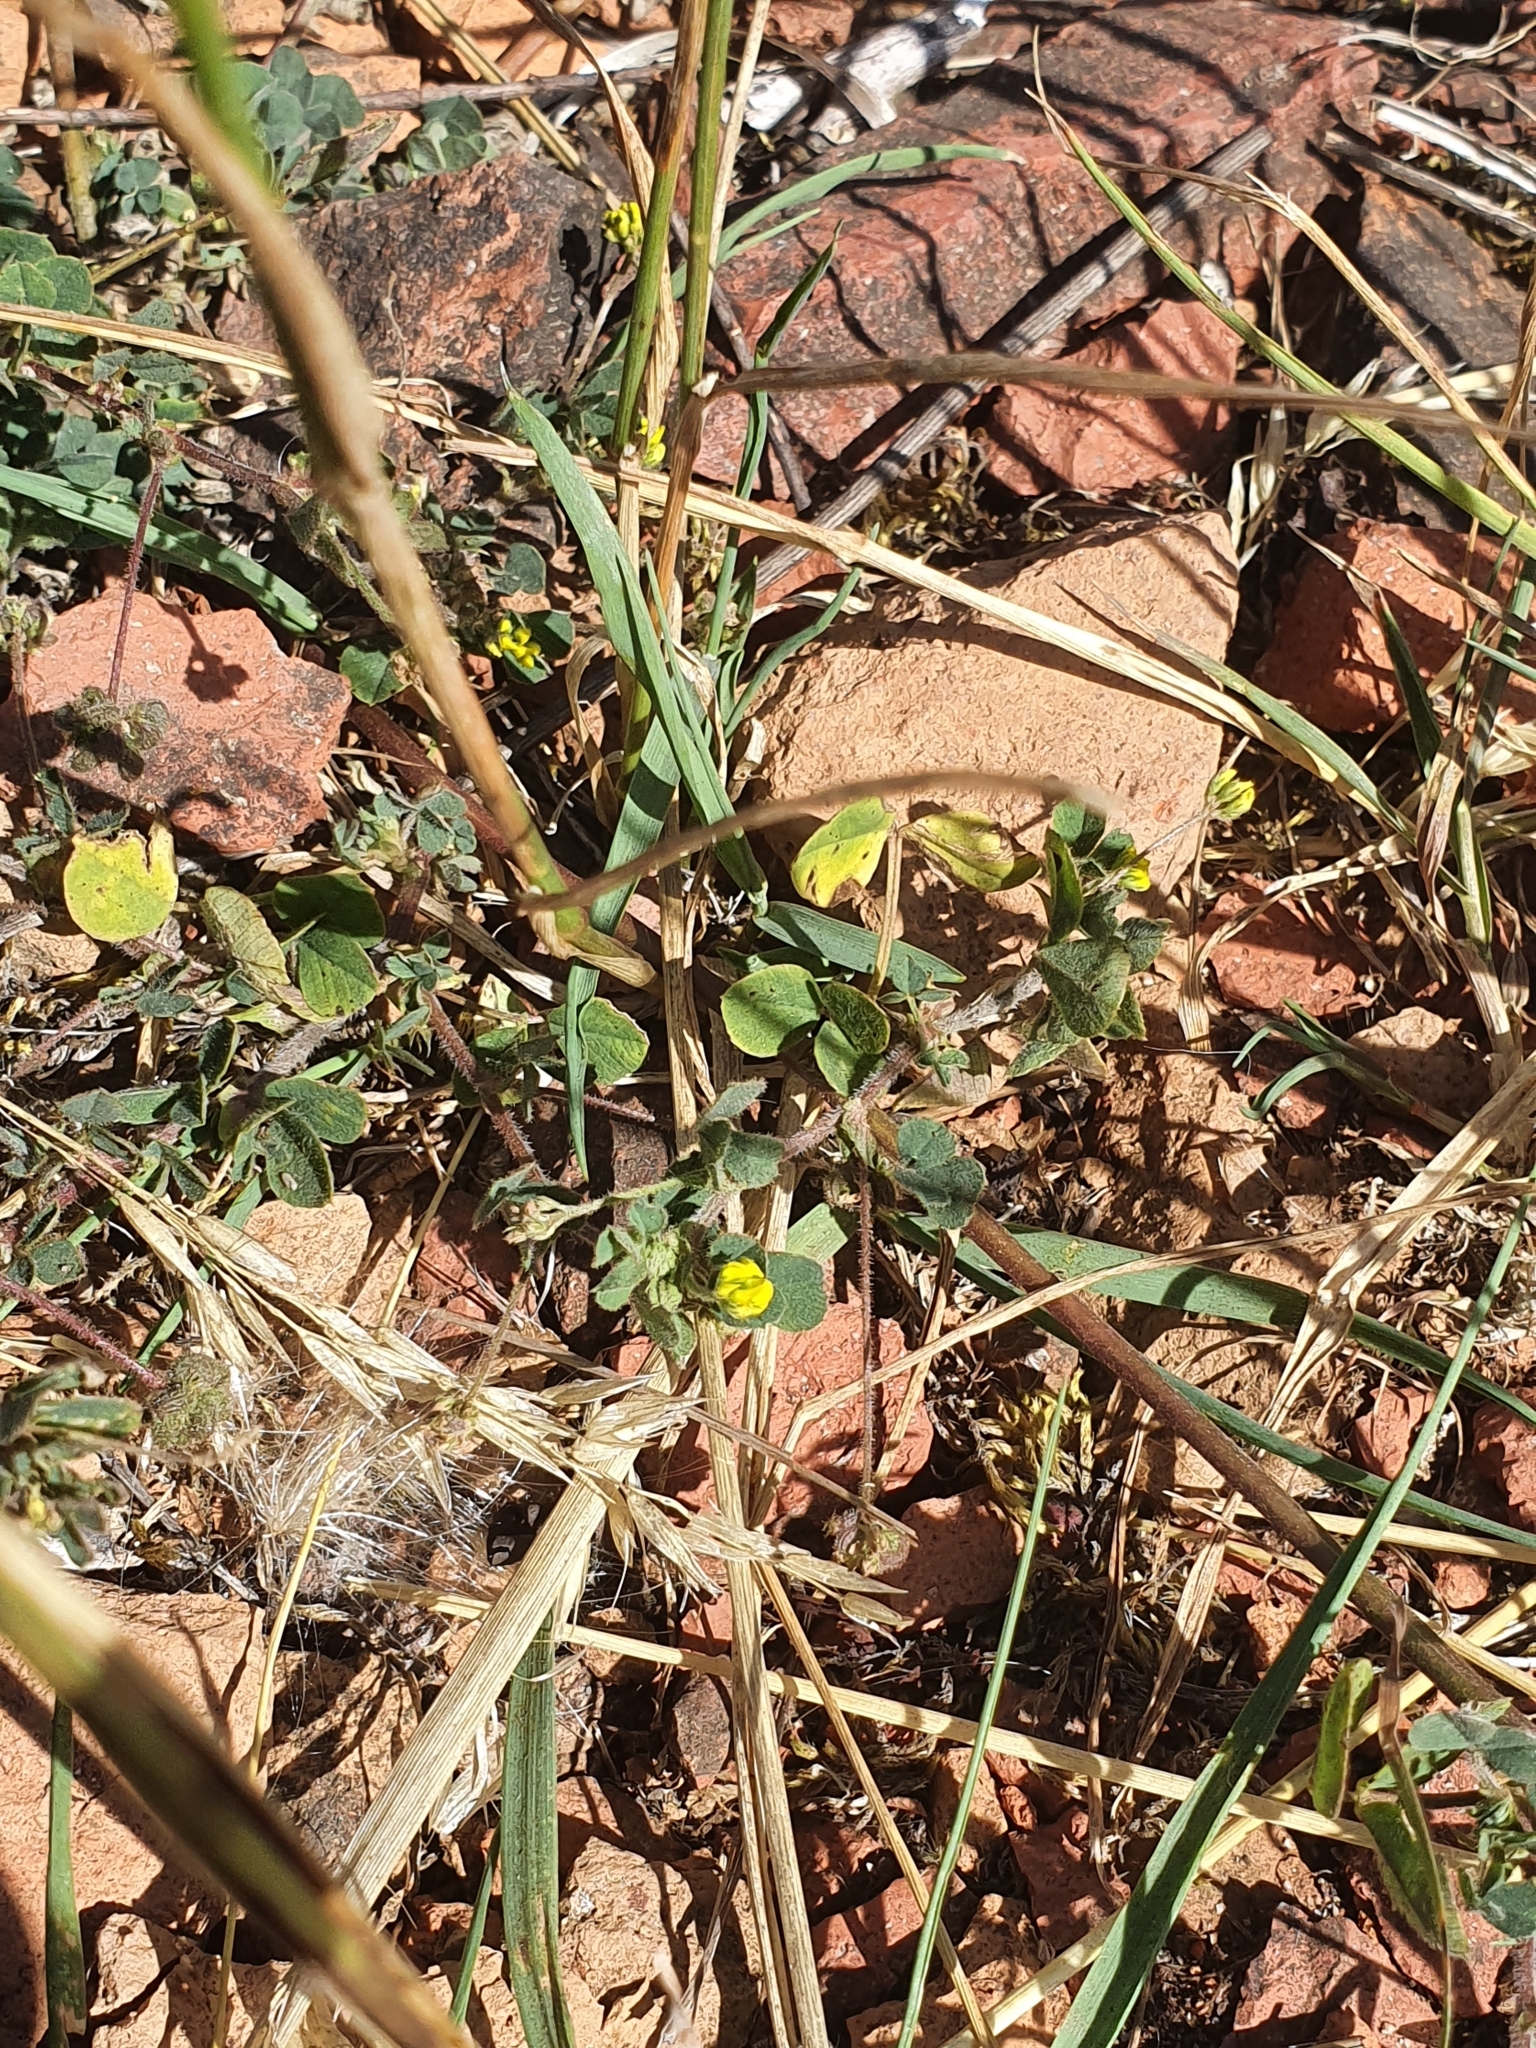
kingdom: Plantae
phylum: Tracheophyta
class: Magnoliopsida
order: Fabales
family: Fabaceae
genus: Medicago
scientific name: Medicago lupulina
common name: Black medick
